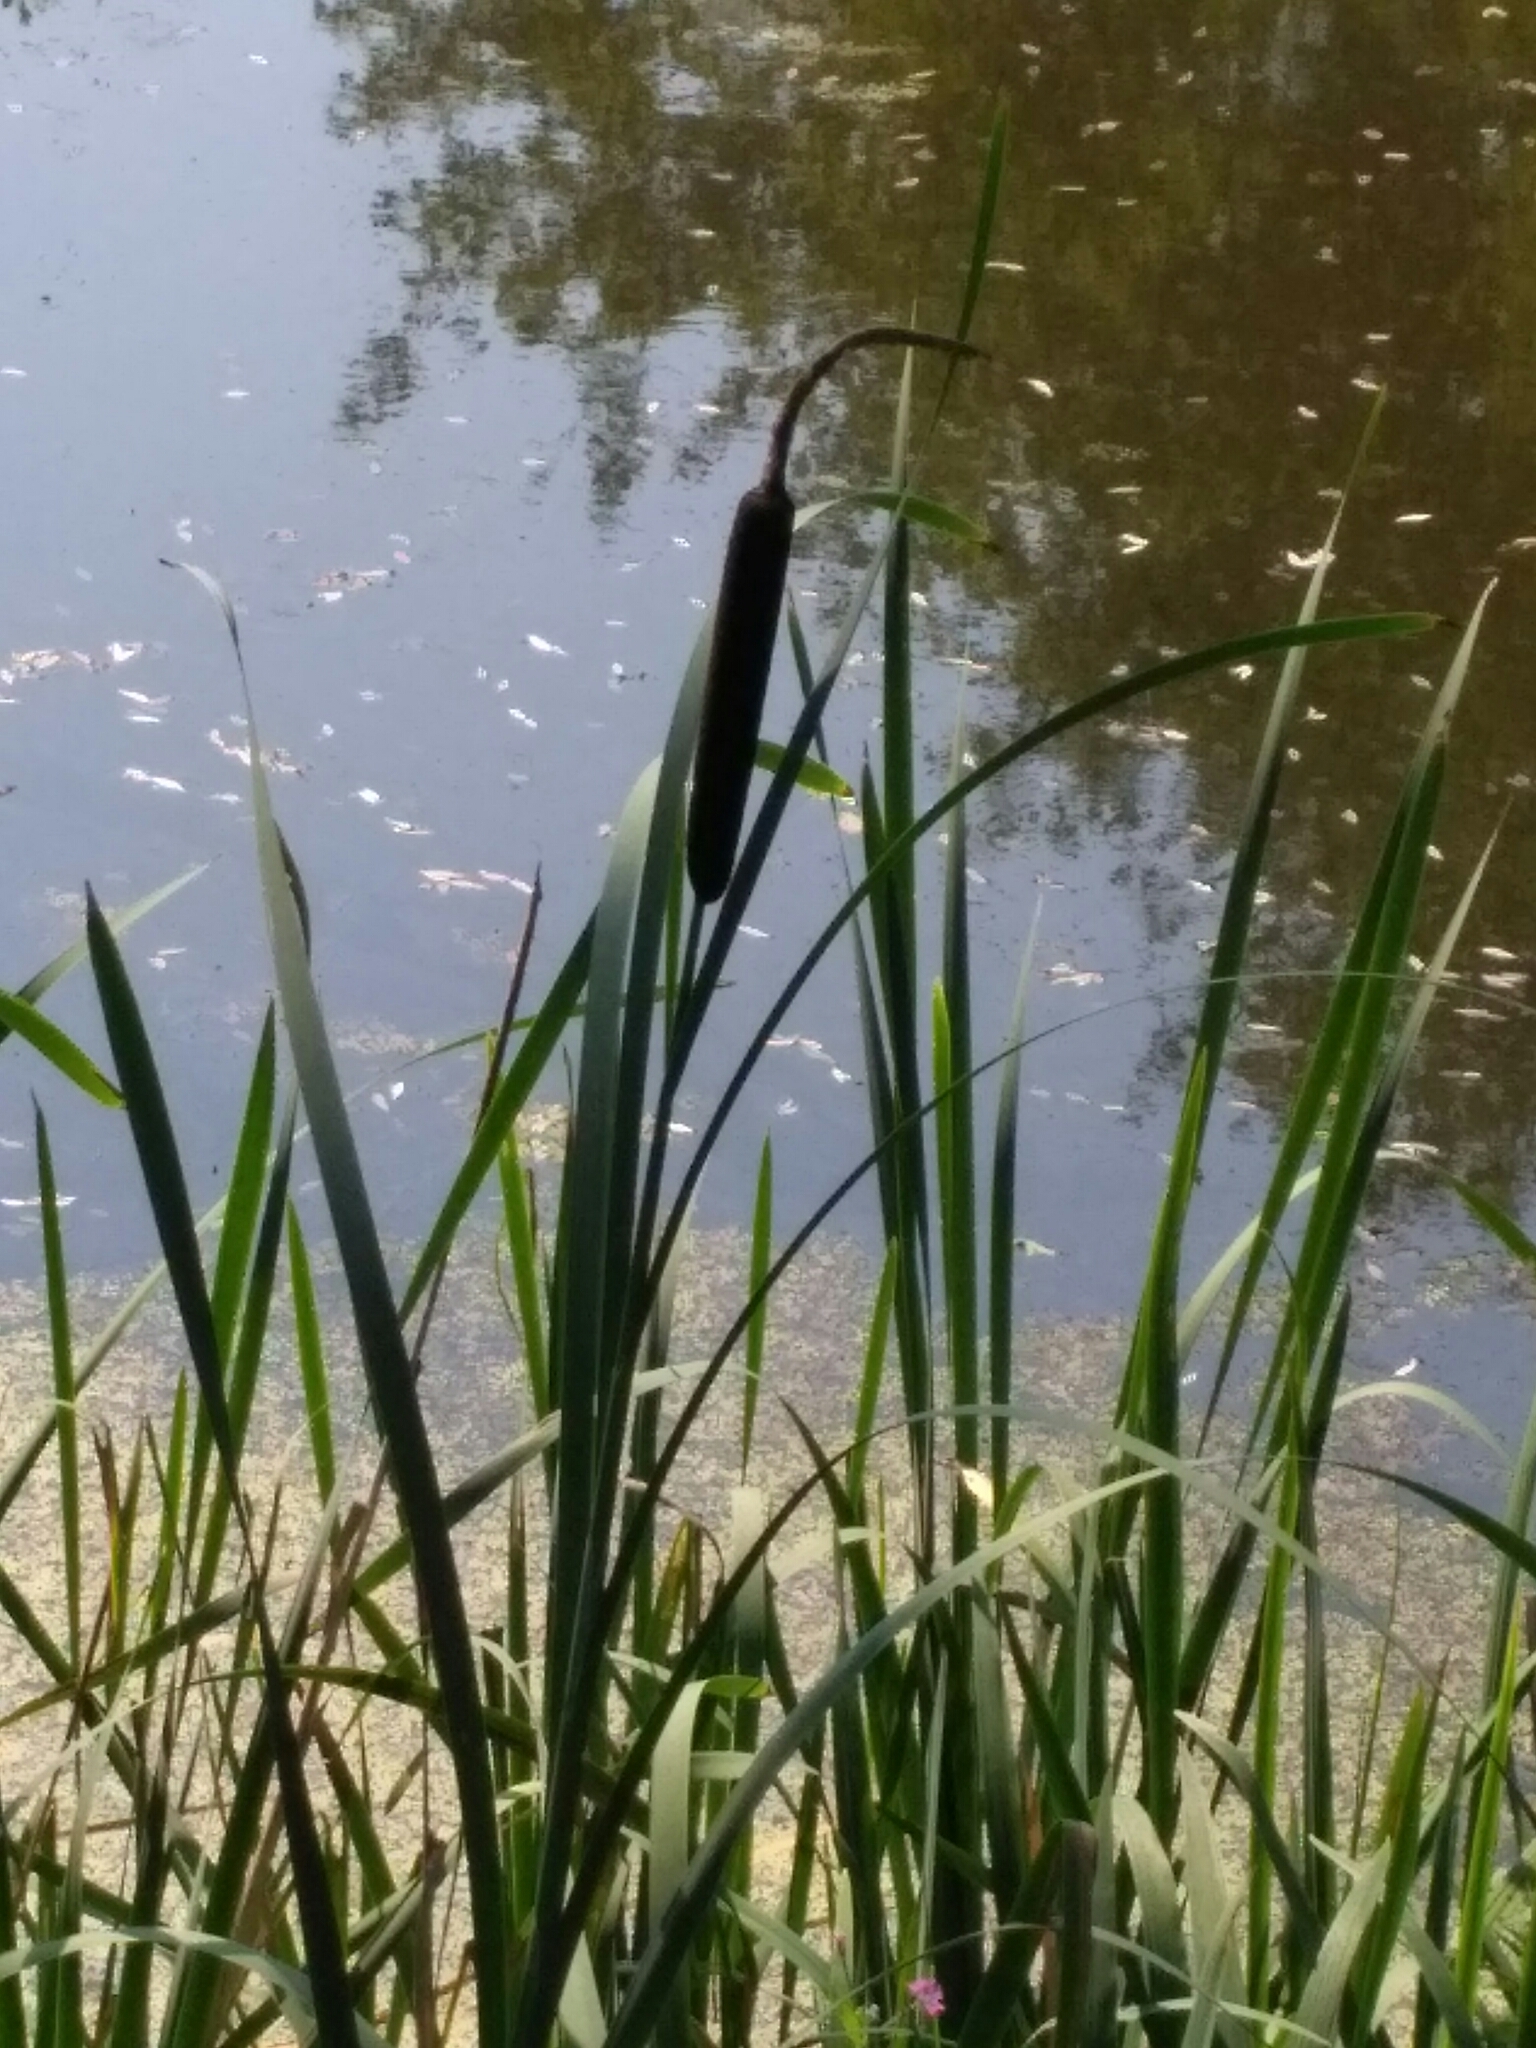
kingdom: Plantae
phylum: Tracheophyta
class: Liliopsida
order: Poales
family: Typhaceae
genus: Typha
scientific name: Typha latifolia
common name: Broadleaf cattail
